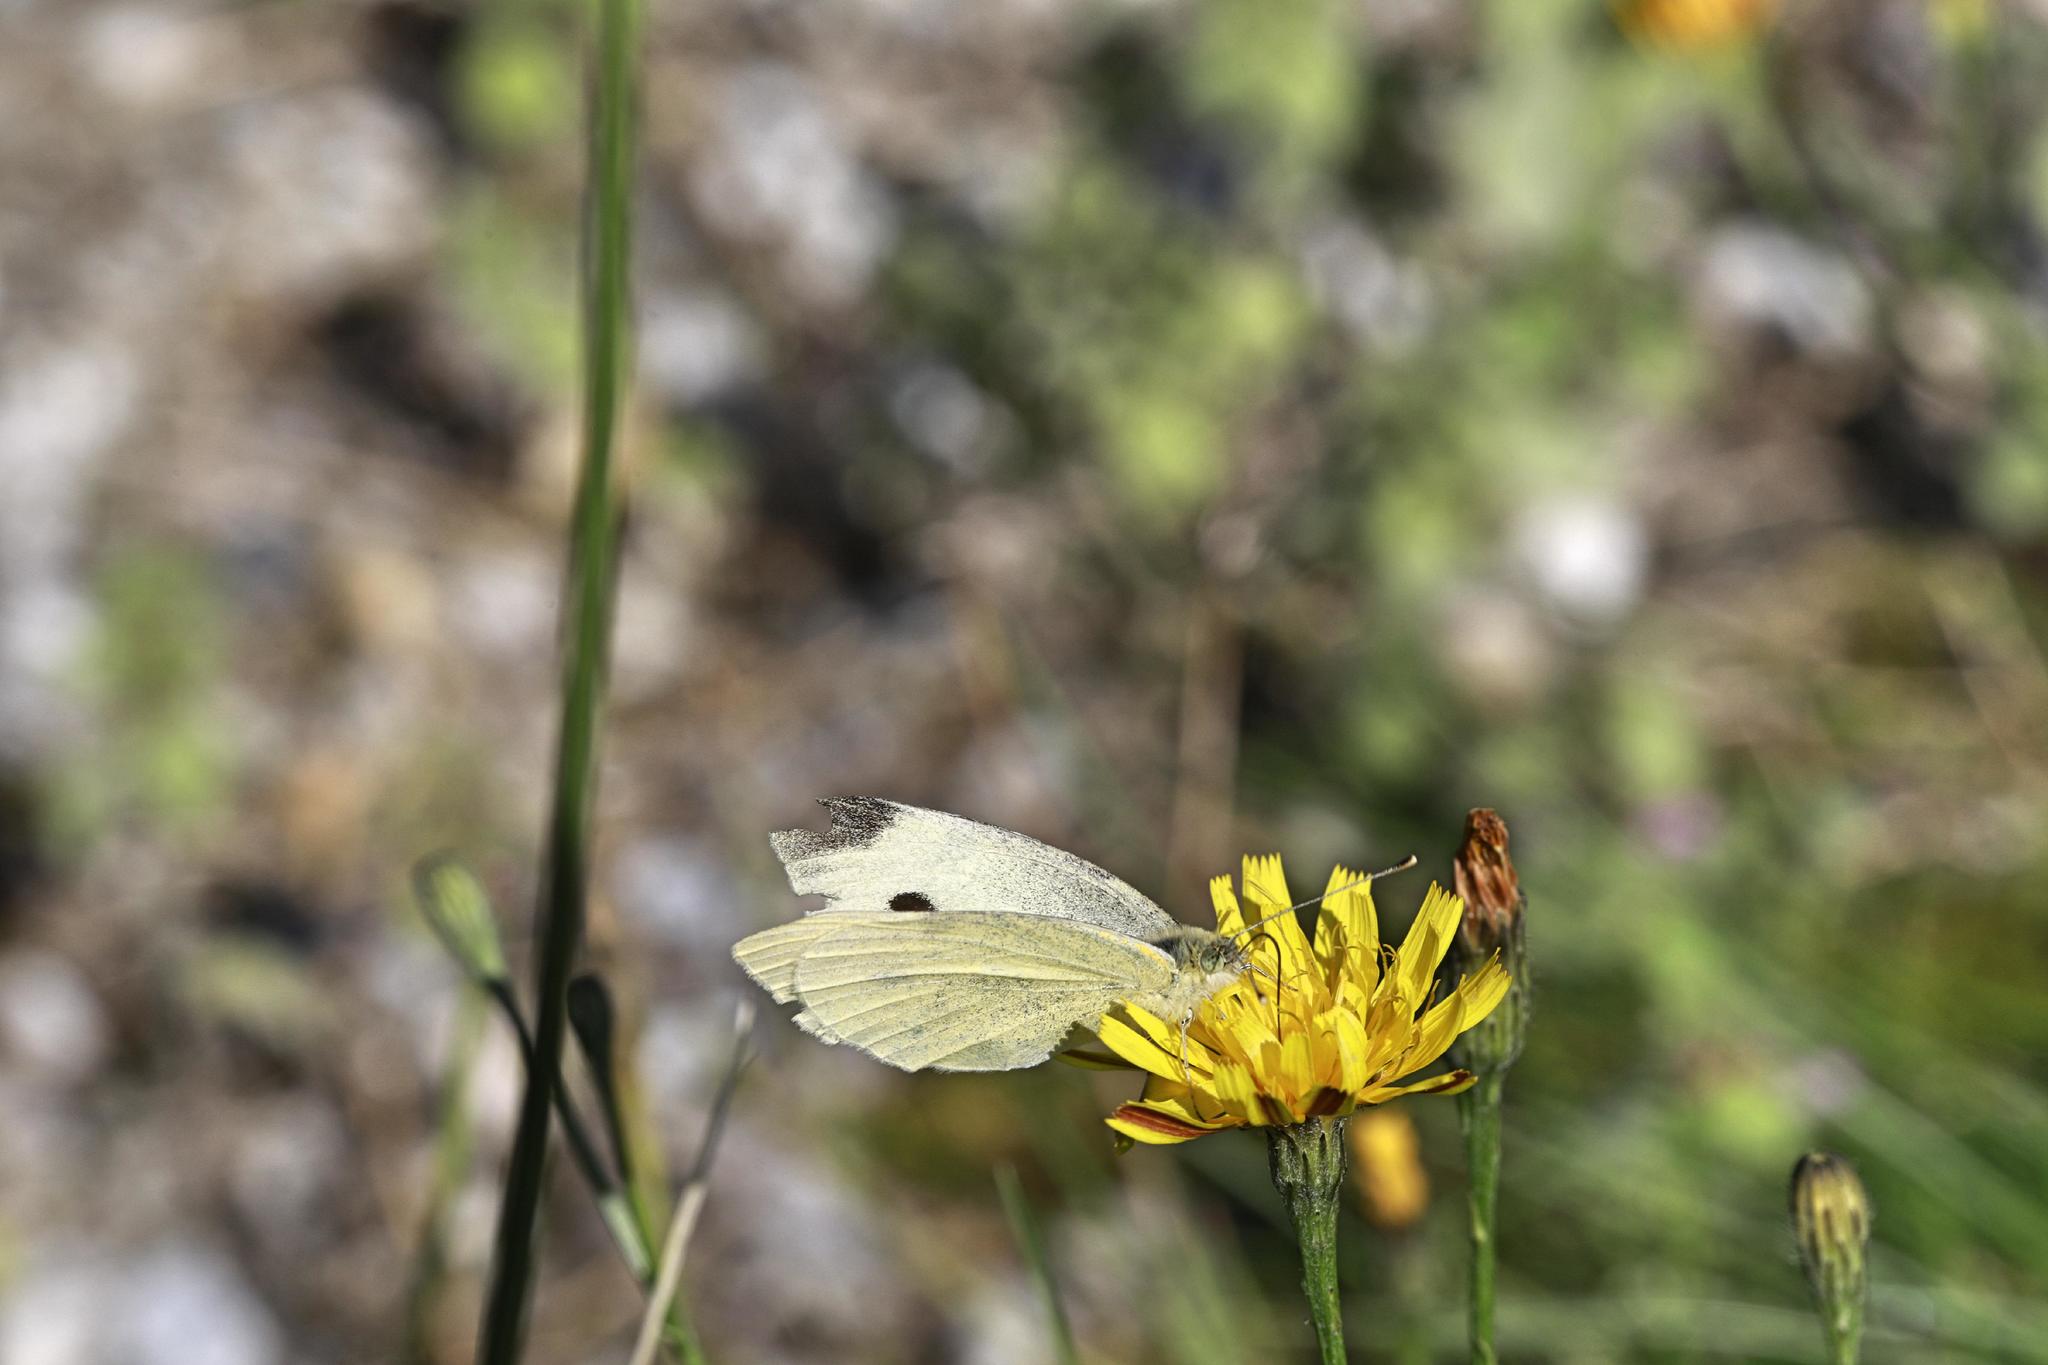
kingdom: Animalia
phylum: Arthropoda
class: Insecta
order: Lepidoptera
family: Pieridae
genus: Pieris
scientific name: Pieris rapae
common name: Small white
